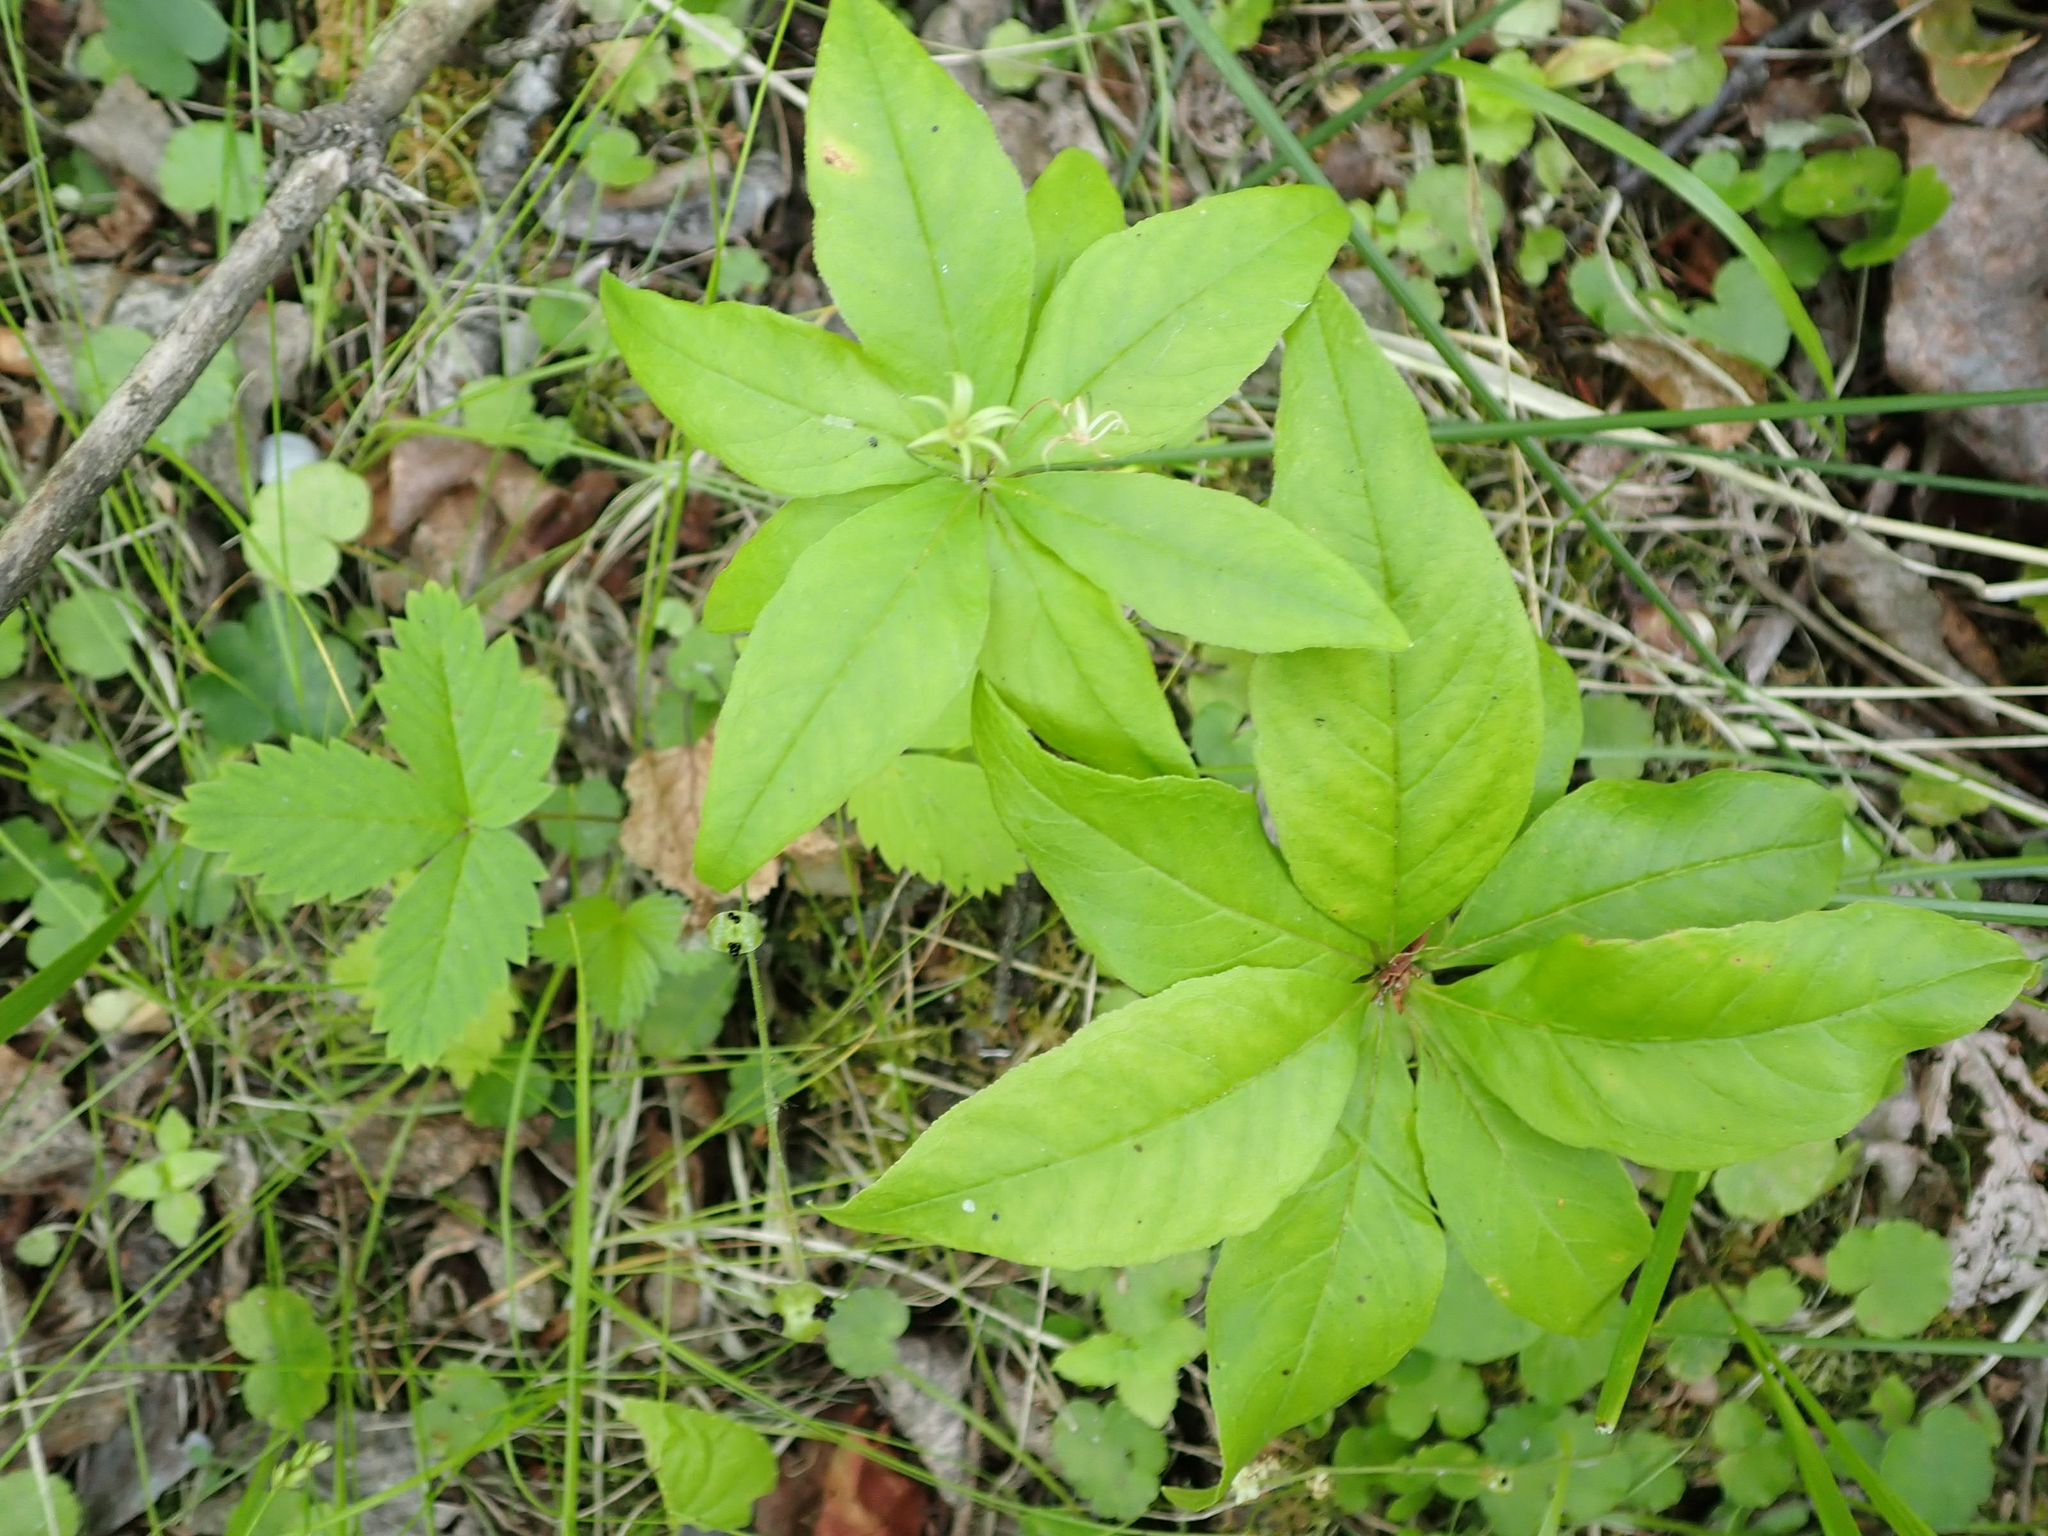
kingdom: Plantae
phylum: Tracheophyta
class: Magnoliopsida
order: Ericales
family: Primulaceae
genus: Lysimachia
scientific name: Lysimachia borealis
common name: American starflower
